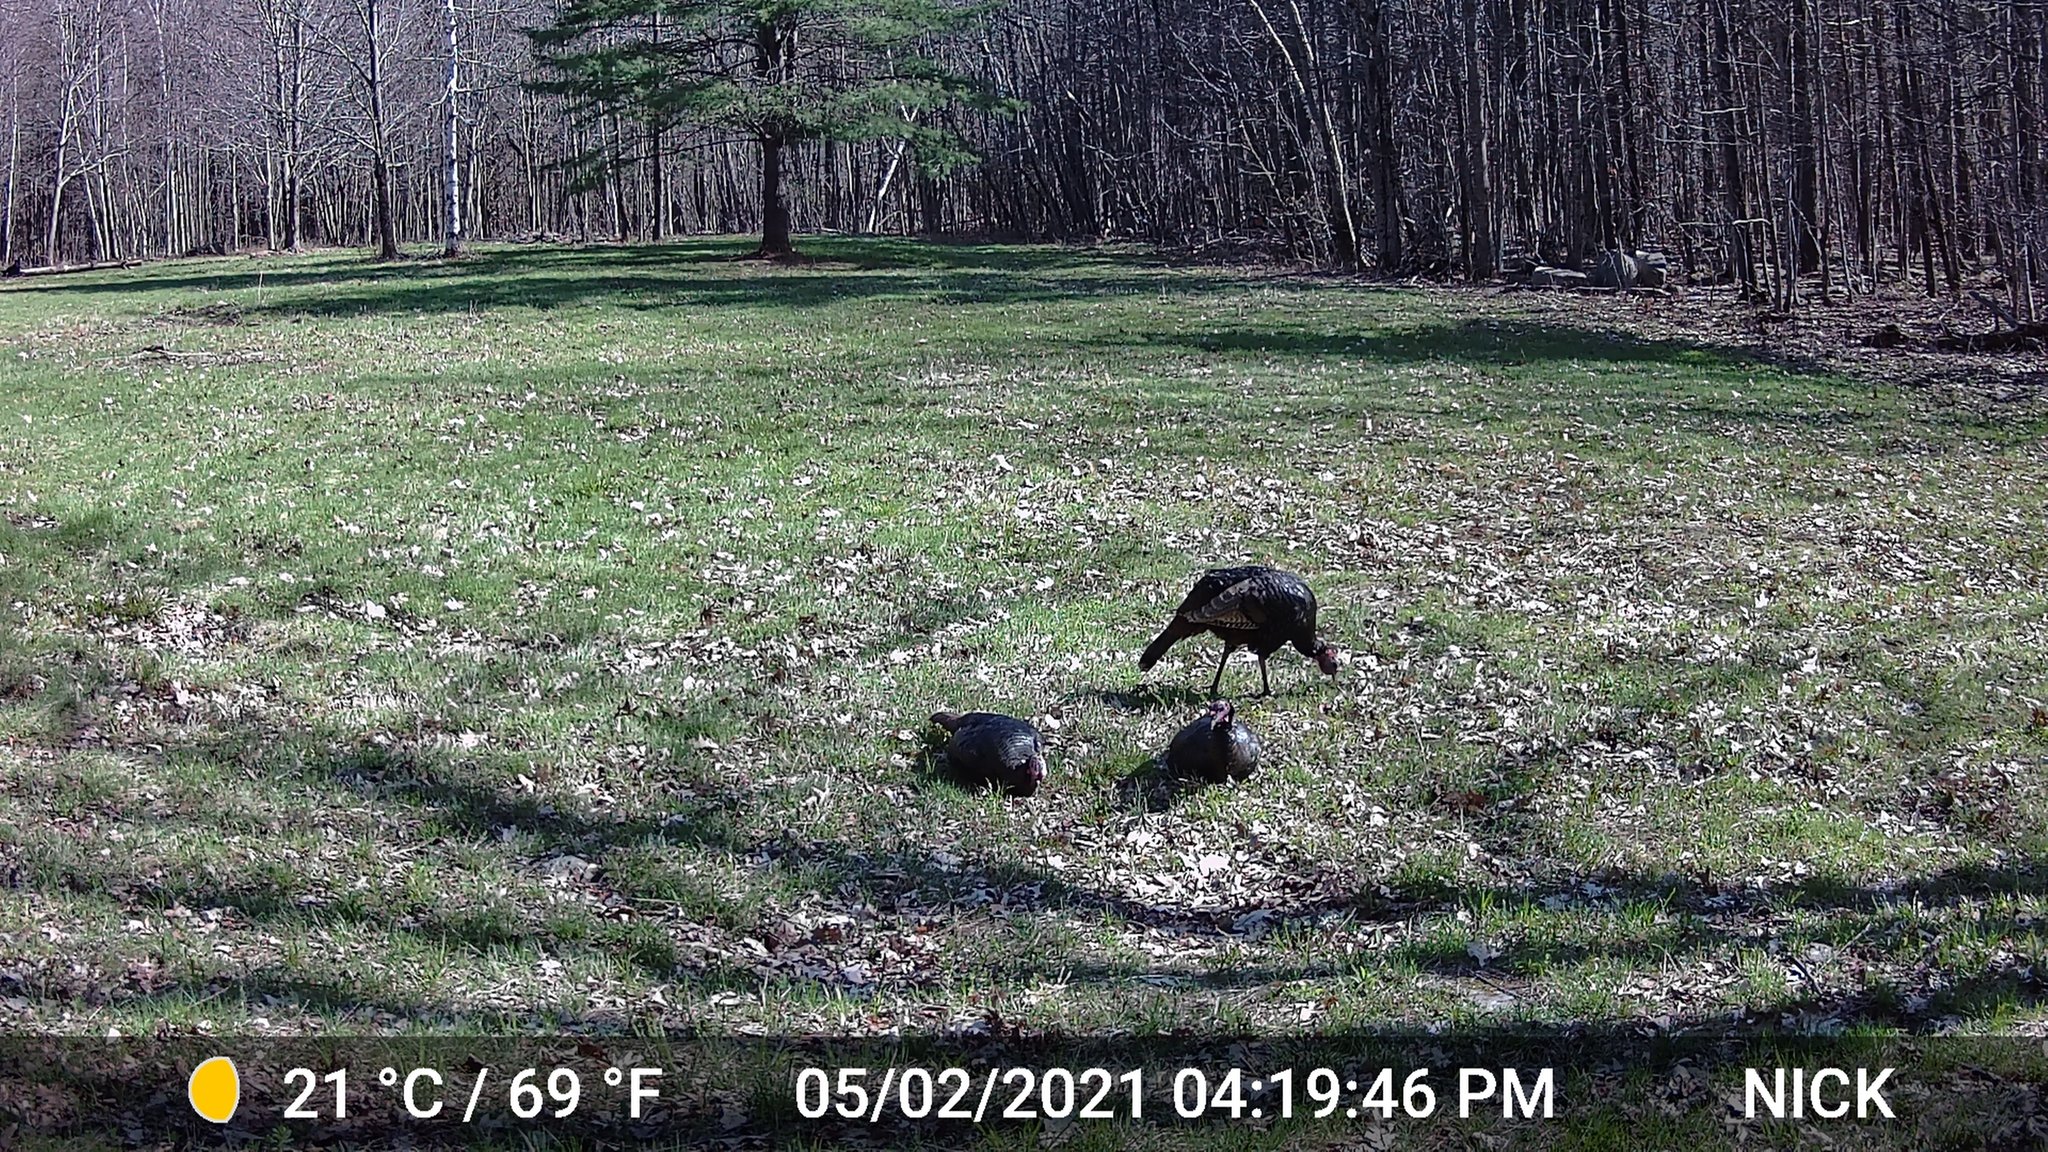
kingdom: Animalia
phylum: Chordata
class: Aves
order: Galliformes
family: Phasianidae
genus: Meleagris
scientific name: Meleagris gallopavo
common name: Wild turkey
